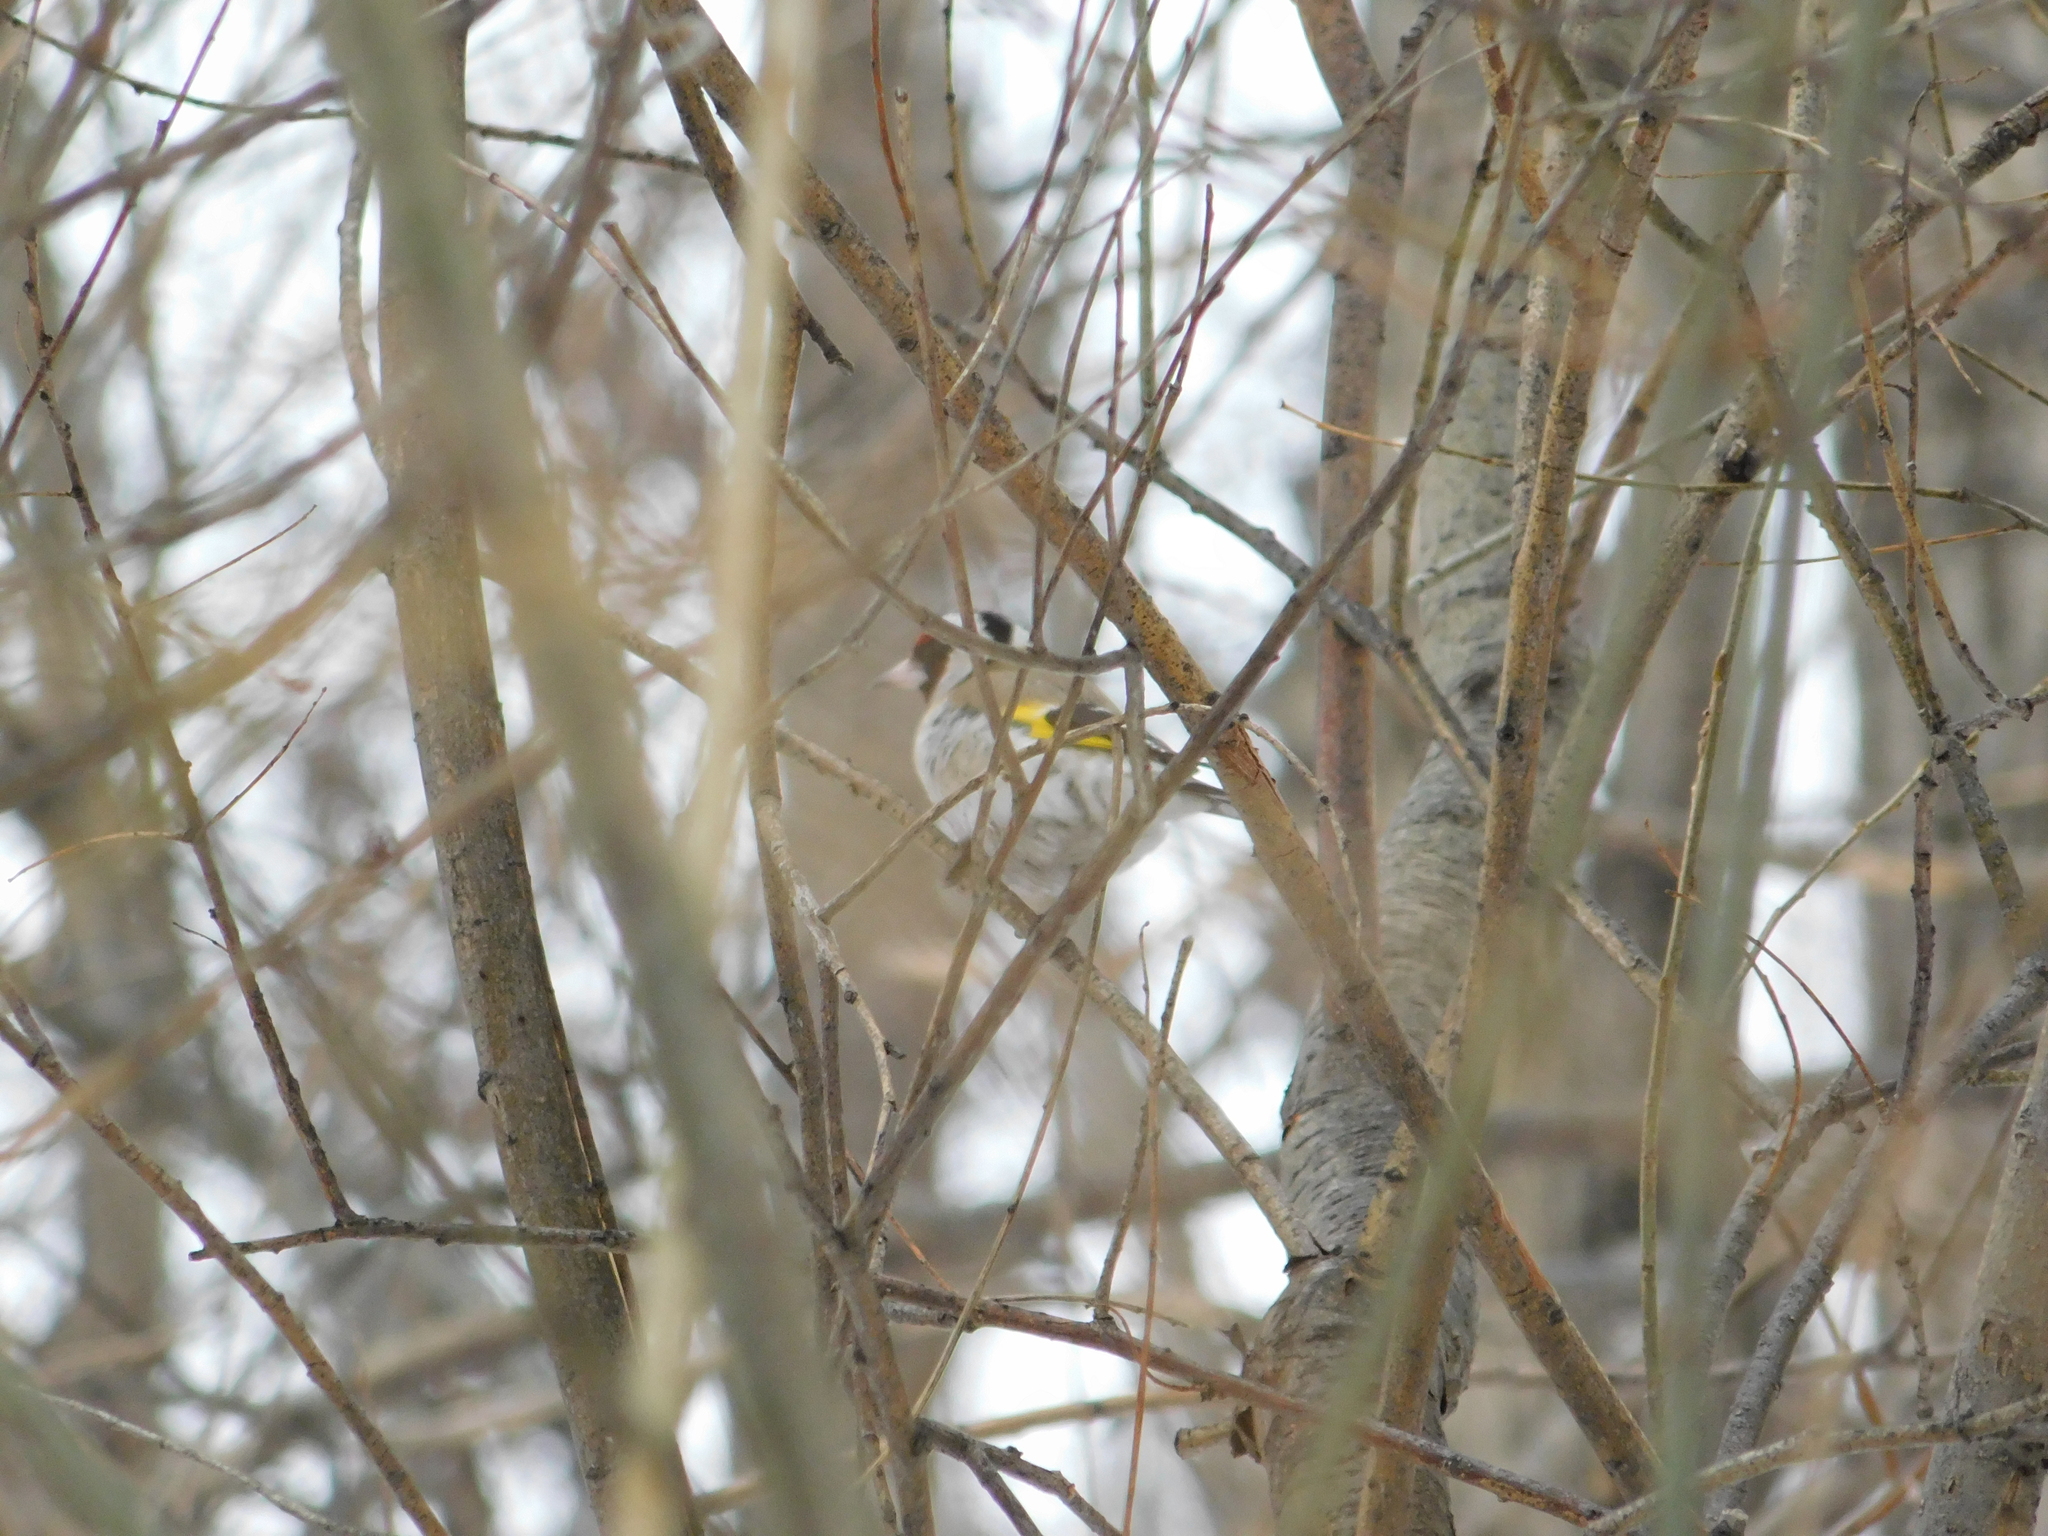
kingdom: Animalia
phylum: Chordata
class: Aves
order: Passeriformes
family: Fringillidae
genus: Carduelis
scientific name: Carduelis carduelis
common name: European goldfinch
